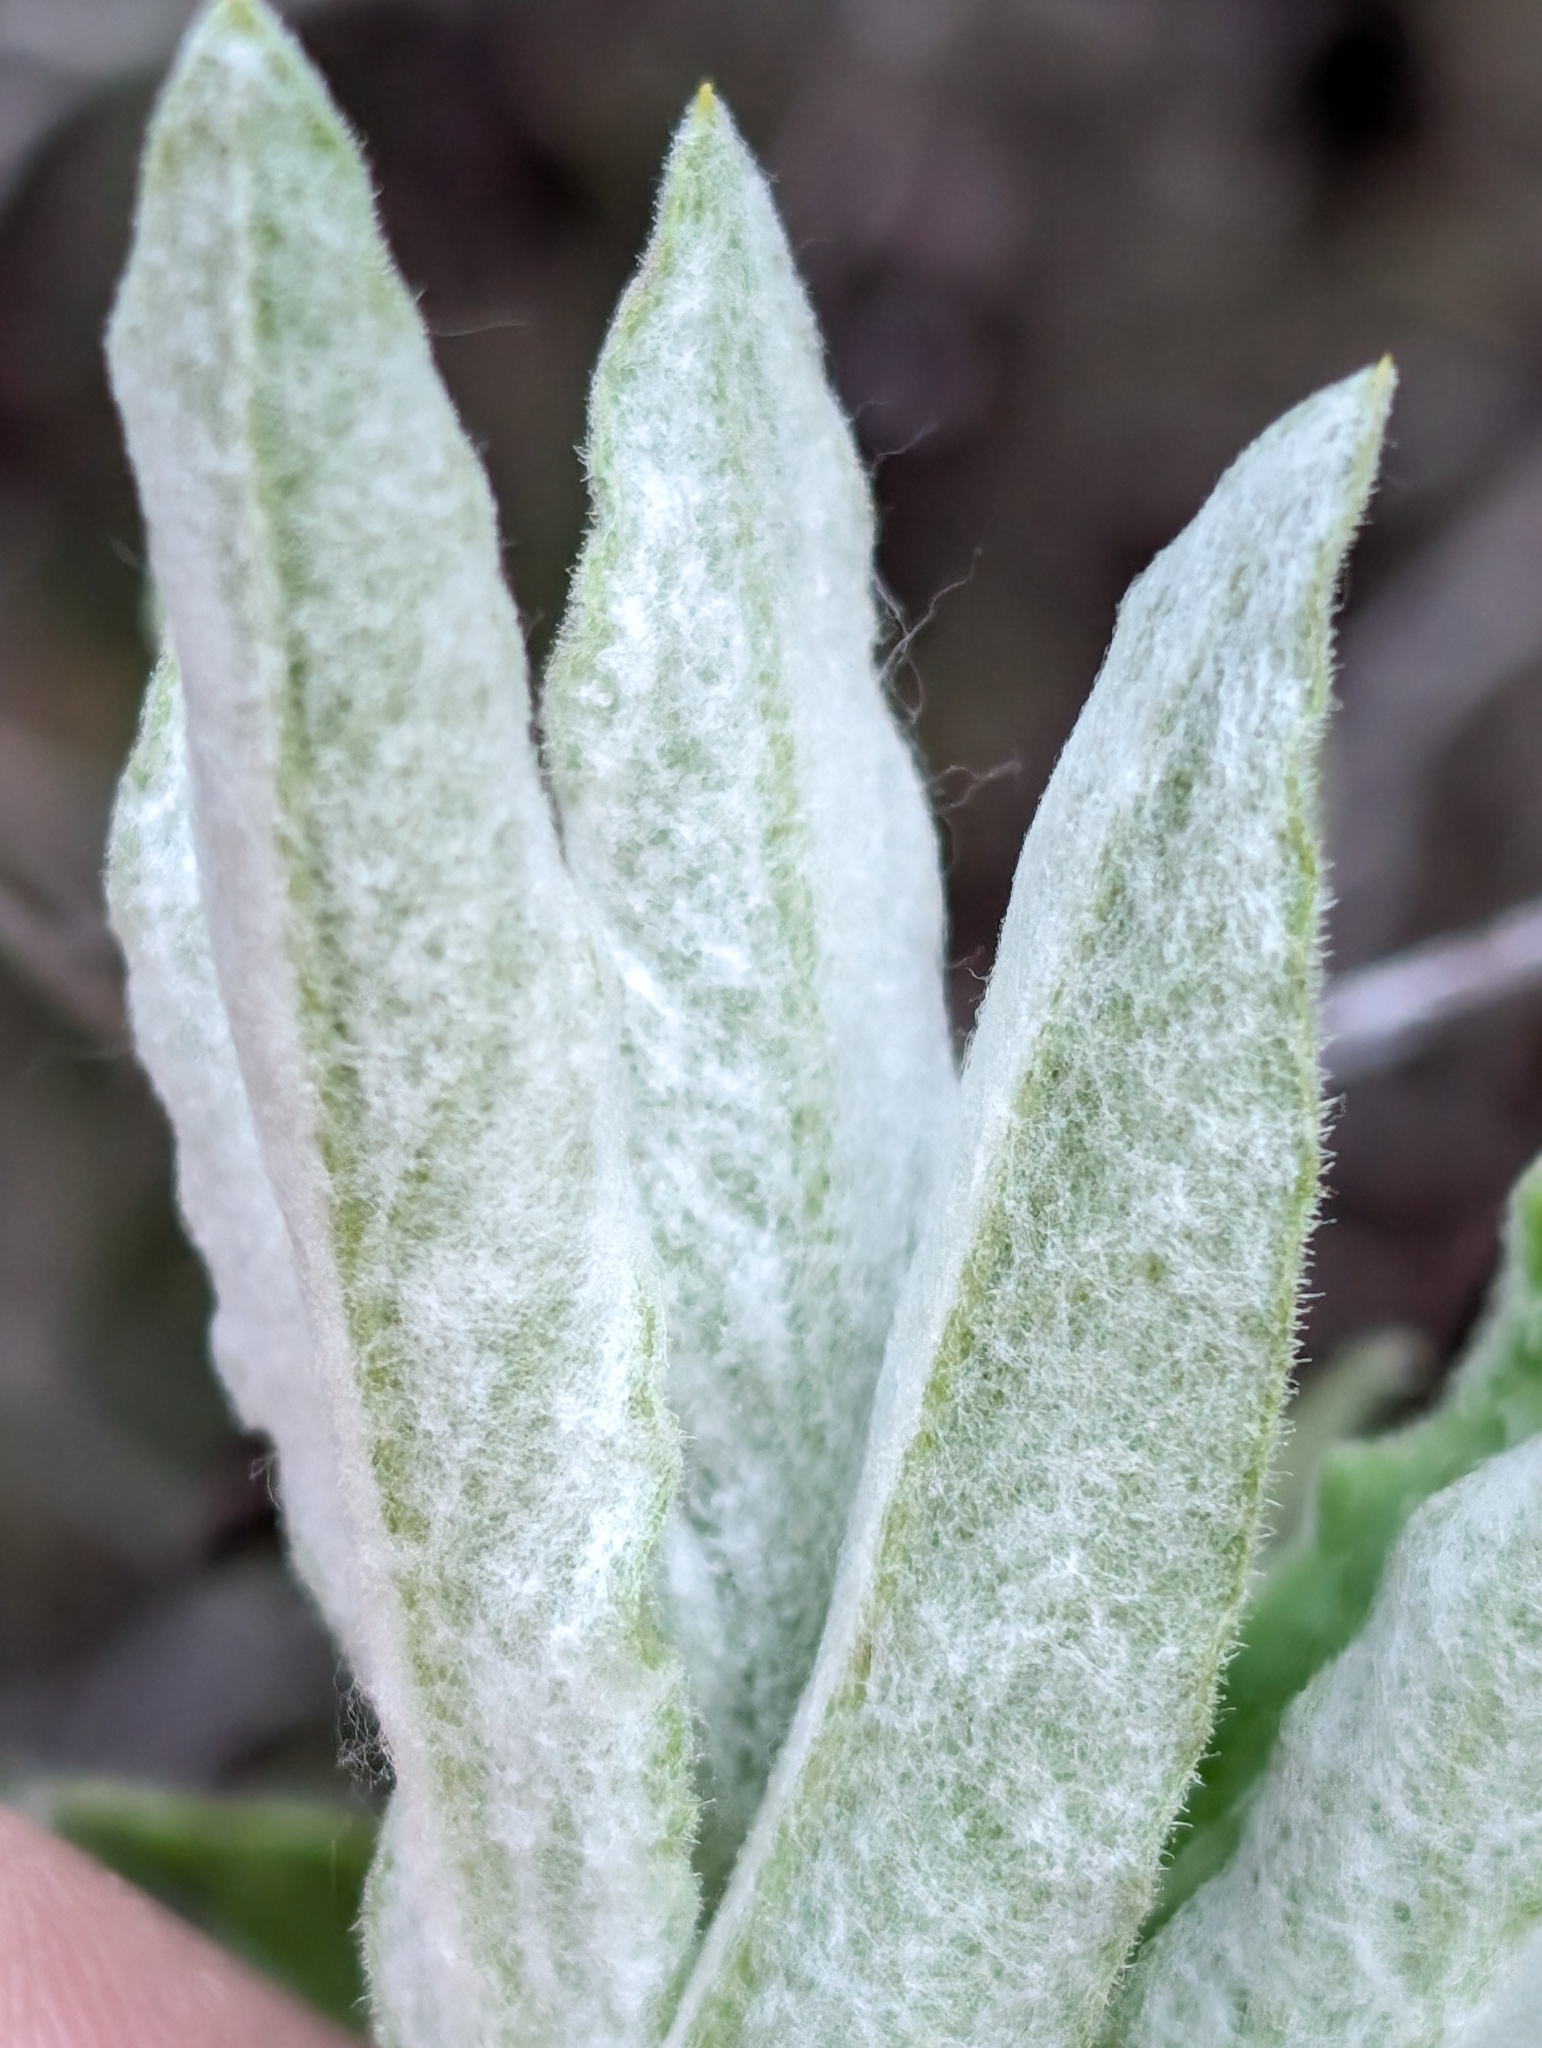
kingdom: Plantae
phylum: Tracheophyta
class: Magnoliopsida
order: Asterales
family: Asteraceae
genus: Pseudognaphalium
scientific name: Pseudognaphalium biolettii
